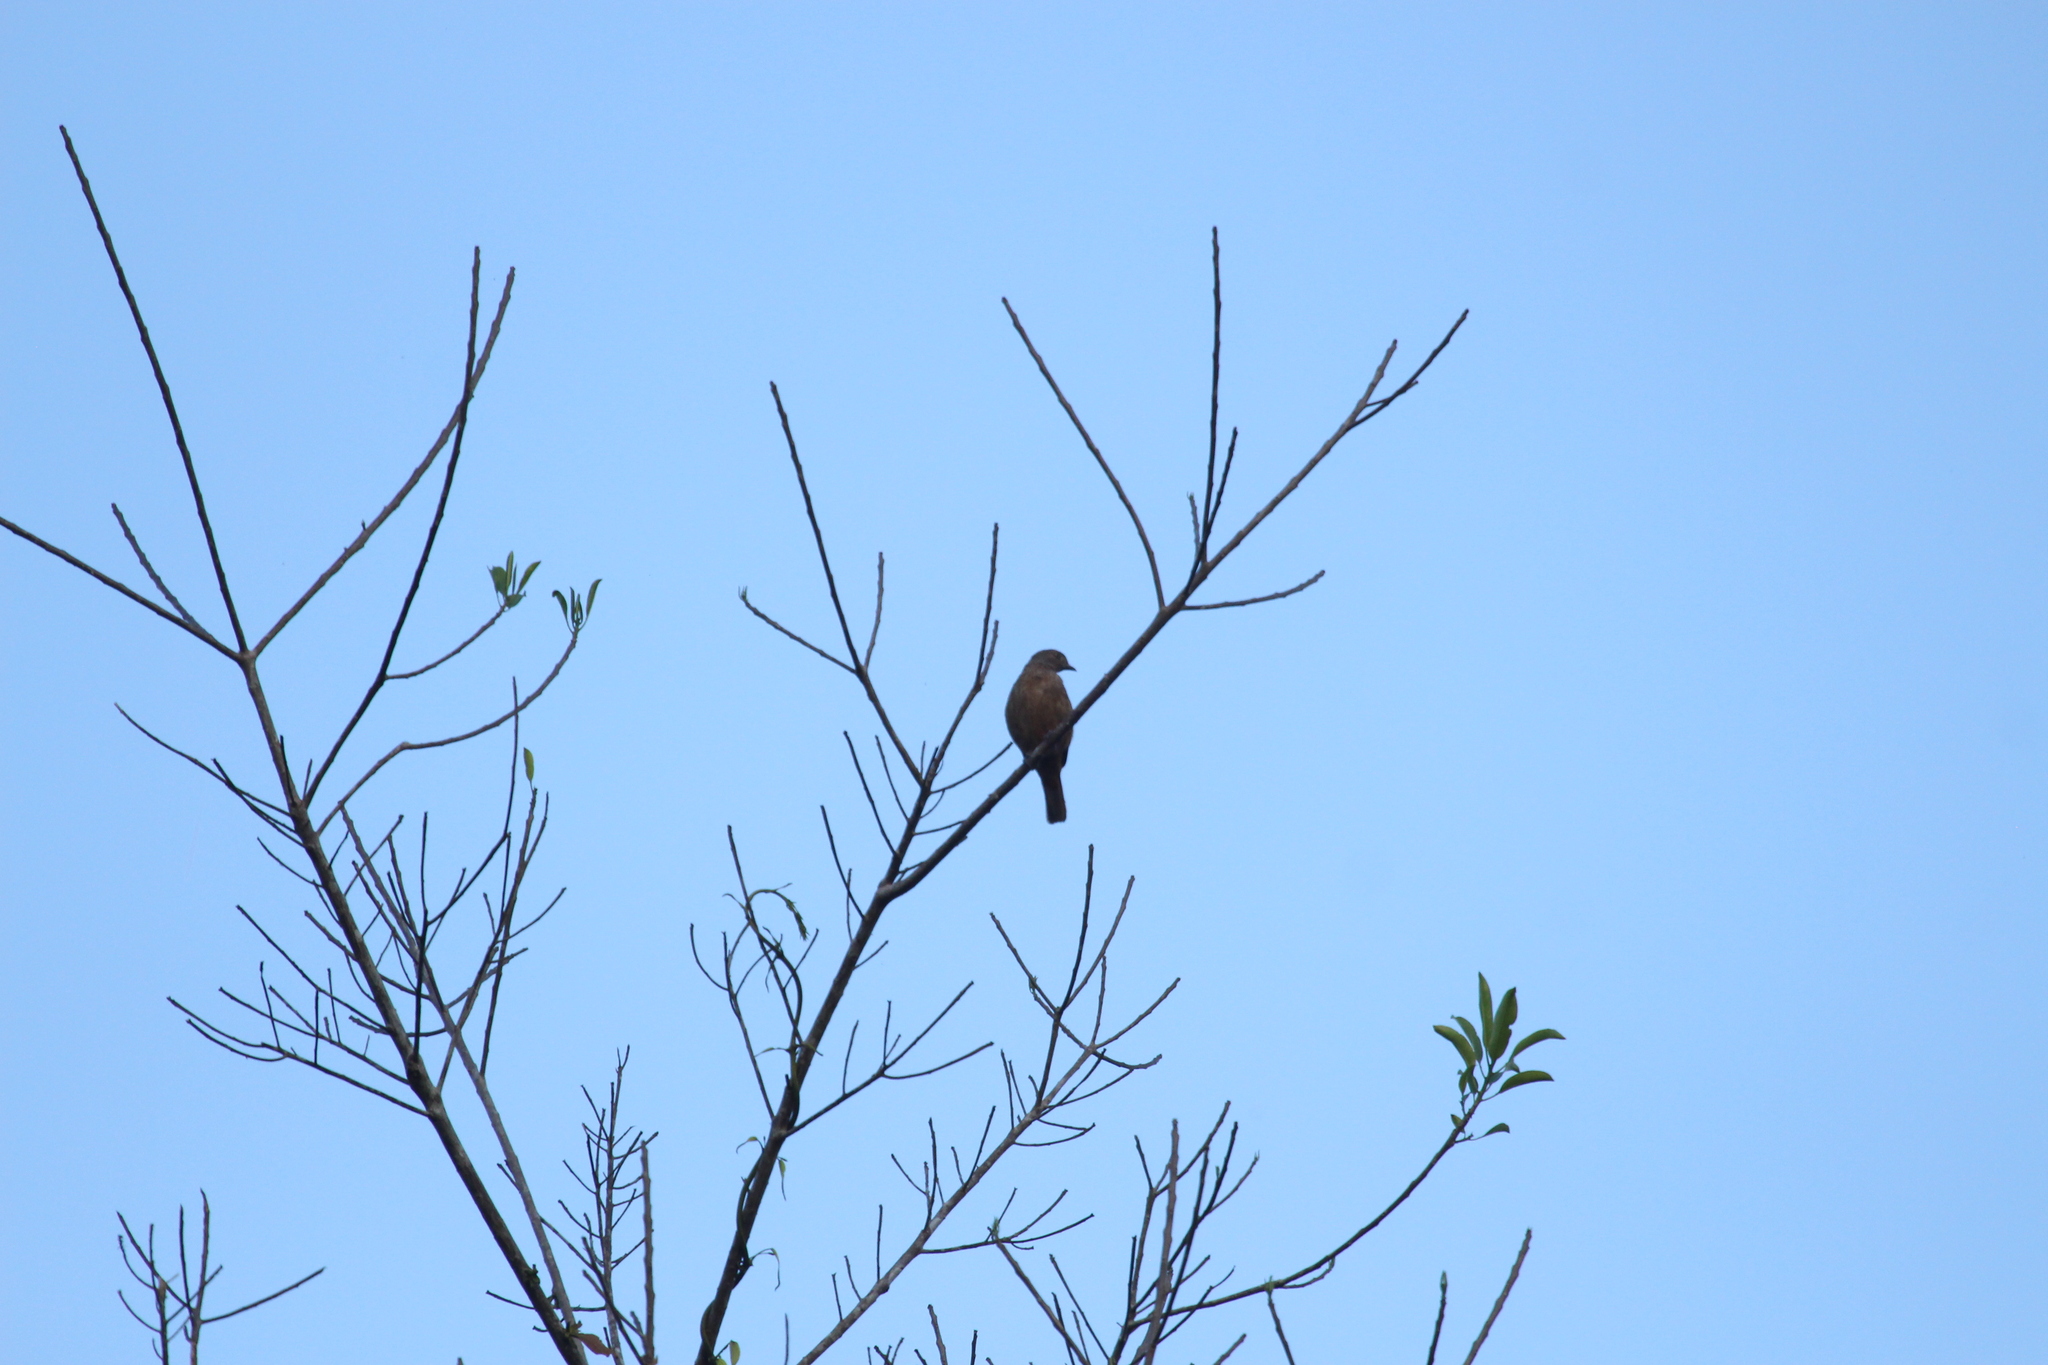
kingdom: Animalia
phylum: Chordata
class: Aves
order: Passeriformes
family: Cotingidae
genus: Cotinga
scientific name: Cotinga maynana
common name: Plum-throated cotinga
